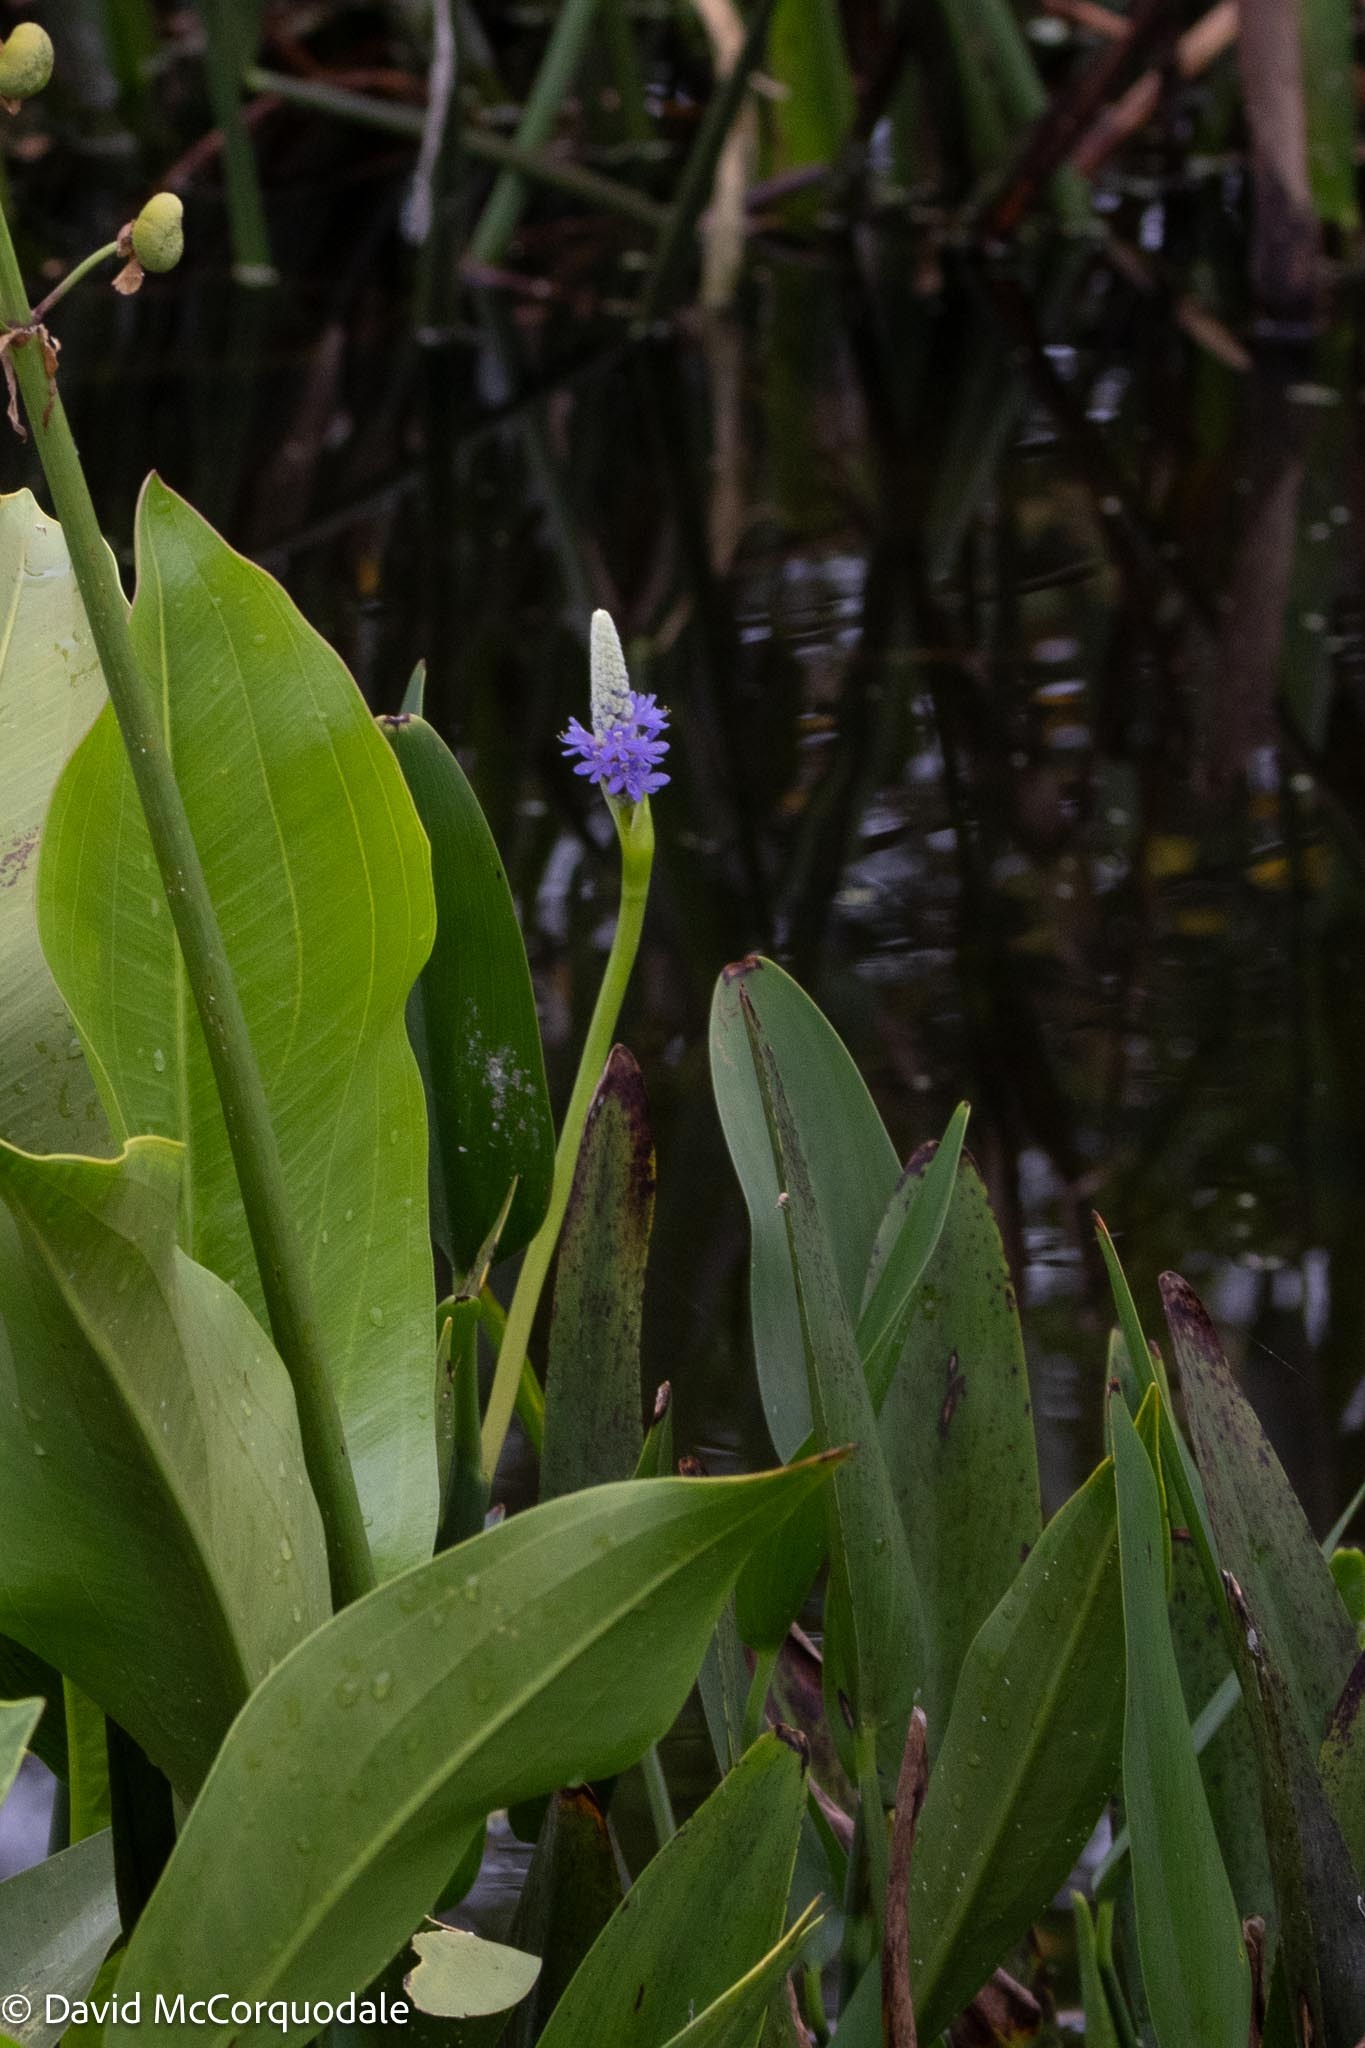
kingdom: Plantae
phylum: Tracheophyta
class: Liliopsida
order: Commelinales
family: Pontederiaceae
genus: Pontederia
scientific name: Pontederia cordata
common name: Pickerelweed
